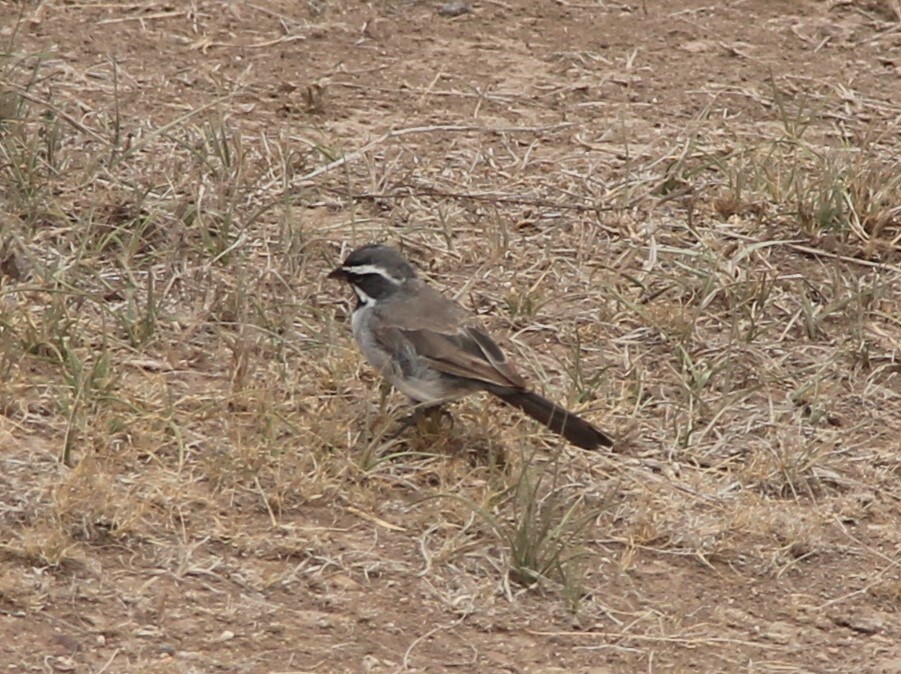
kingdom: Animalia
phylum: Chordata
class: Aves
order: Passeriformes
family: Passerellidae
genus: Amphispiza
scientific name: Amphispiza bilineata
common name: Black-throated sparrow
